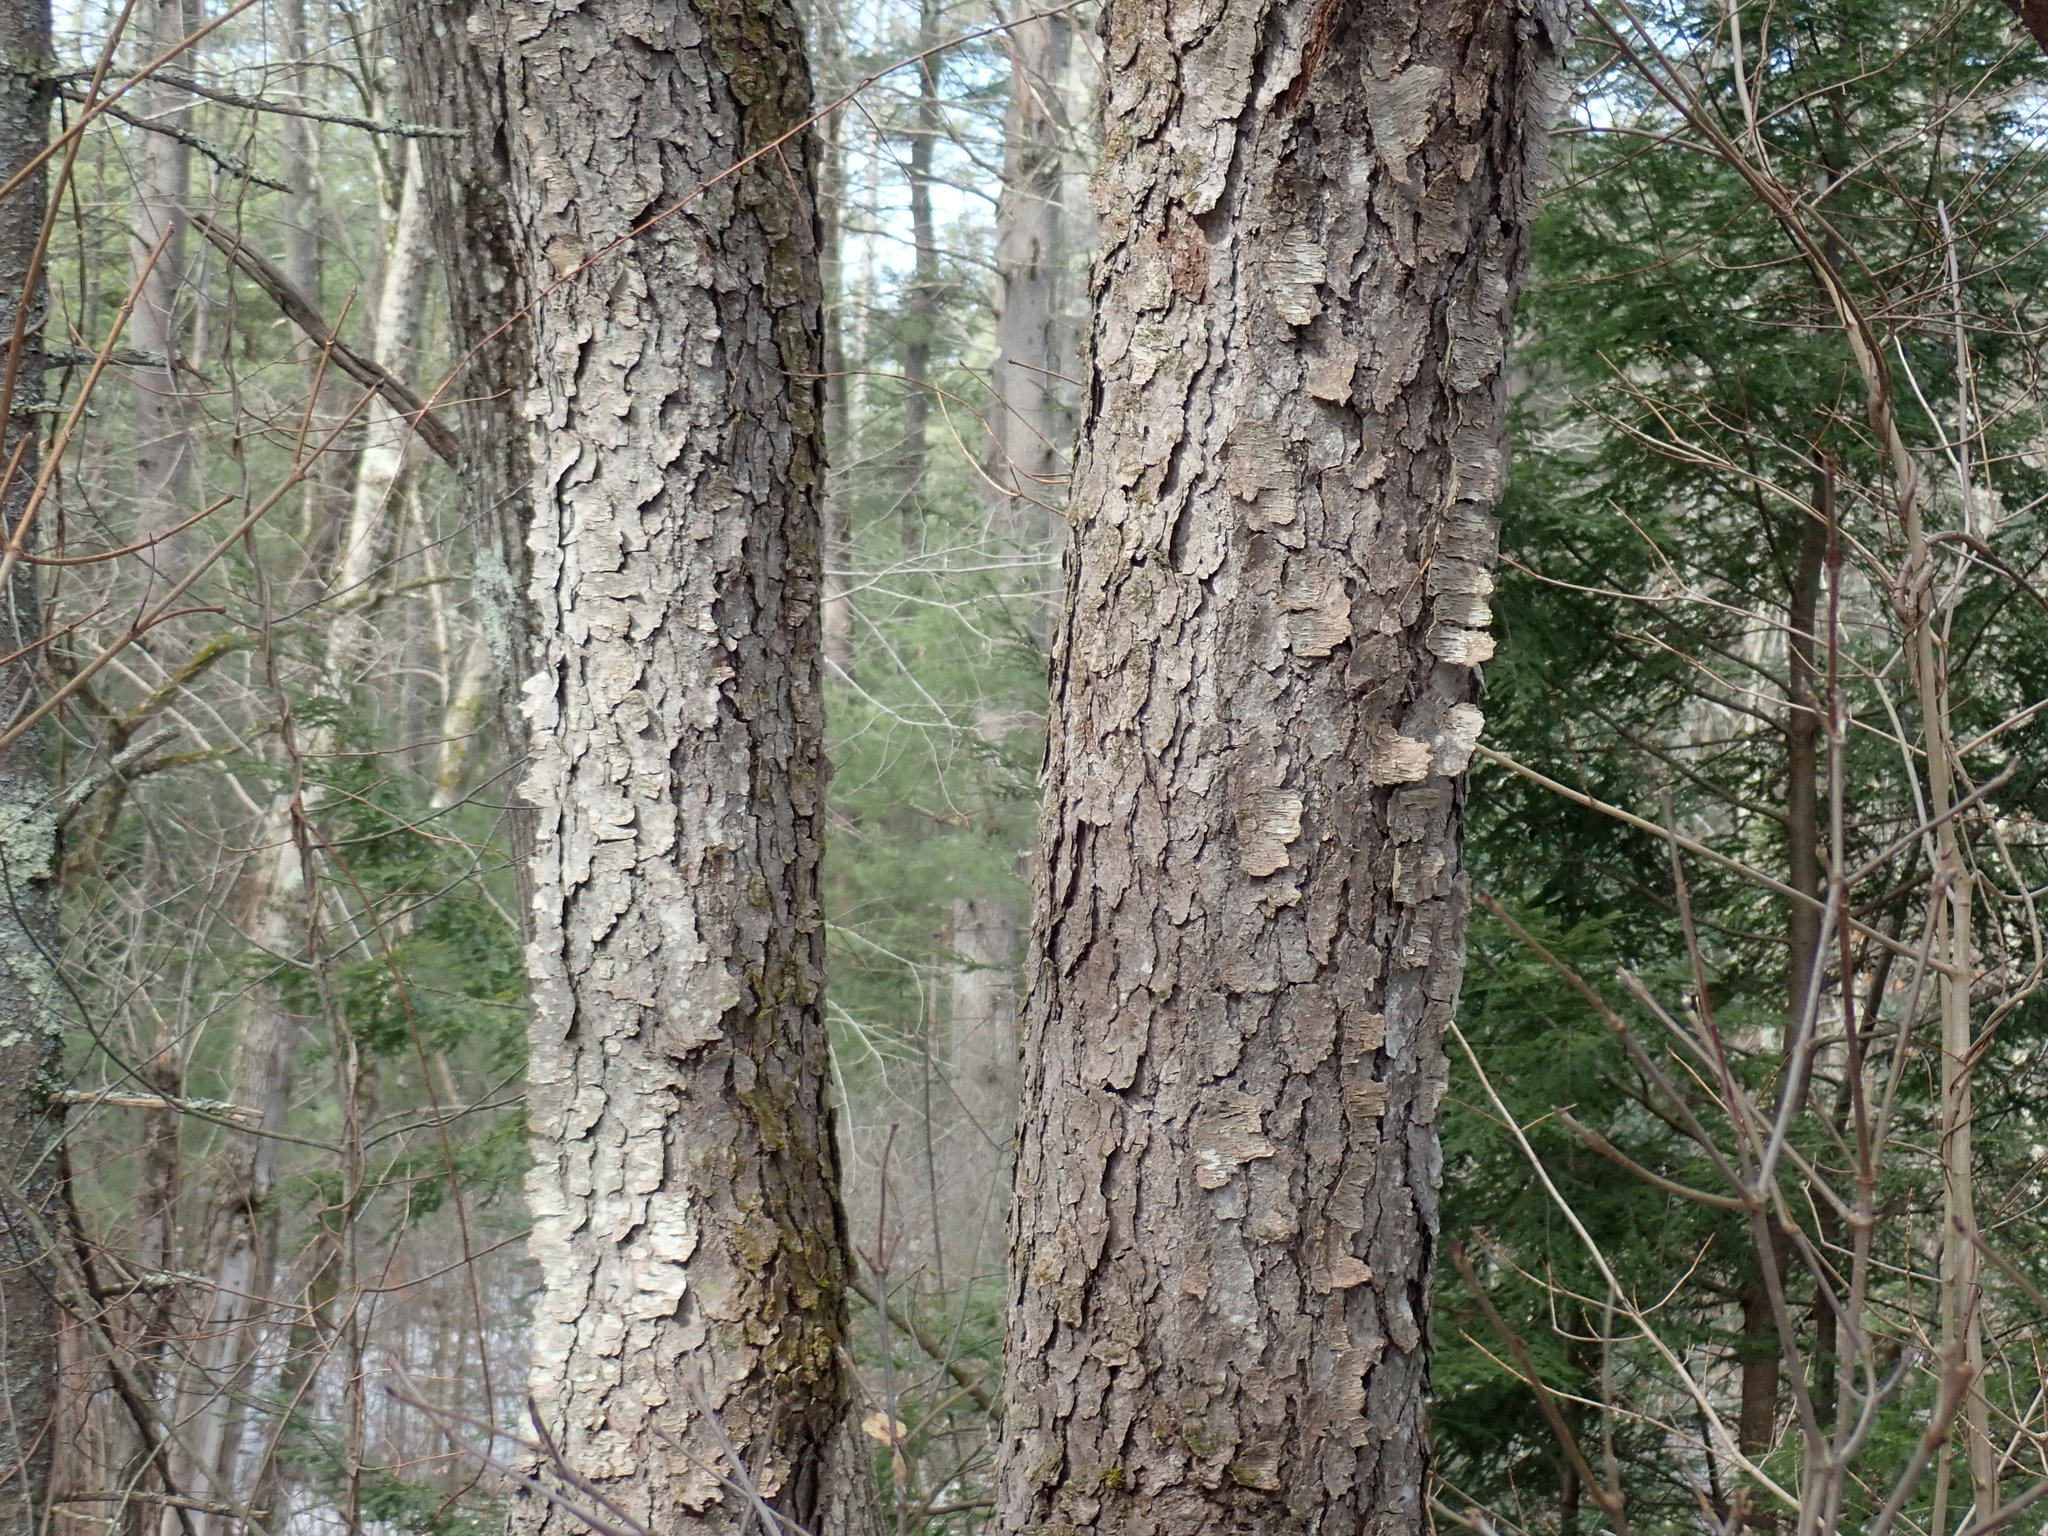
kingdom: Plantae
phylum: Tracheophyta
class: Magnoliopsida
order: Rosales
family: Rosaceae
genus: Prunus
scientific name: Prunus serotina
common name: Black cherry
